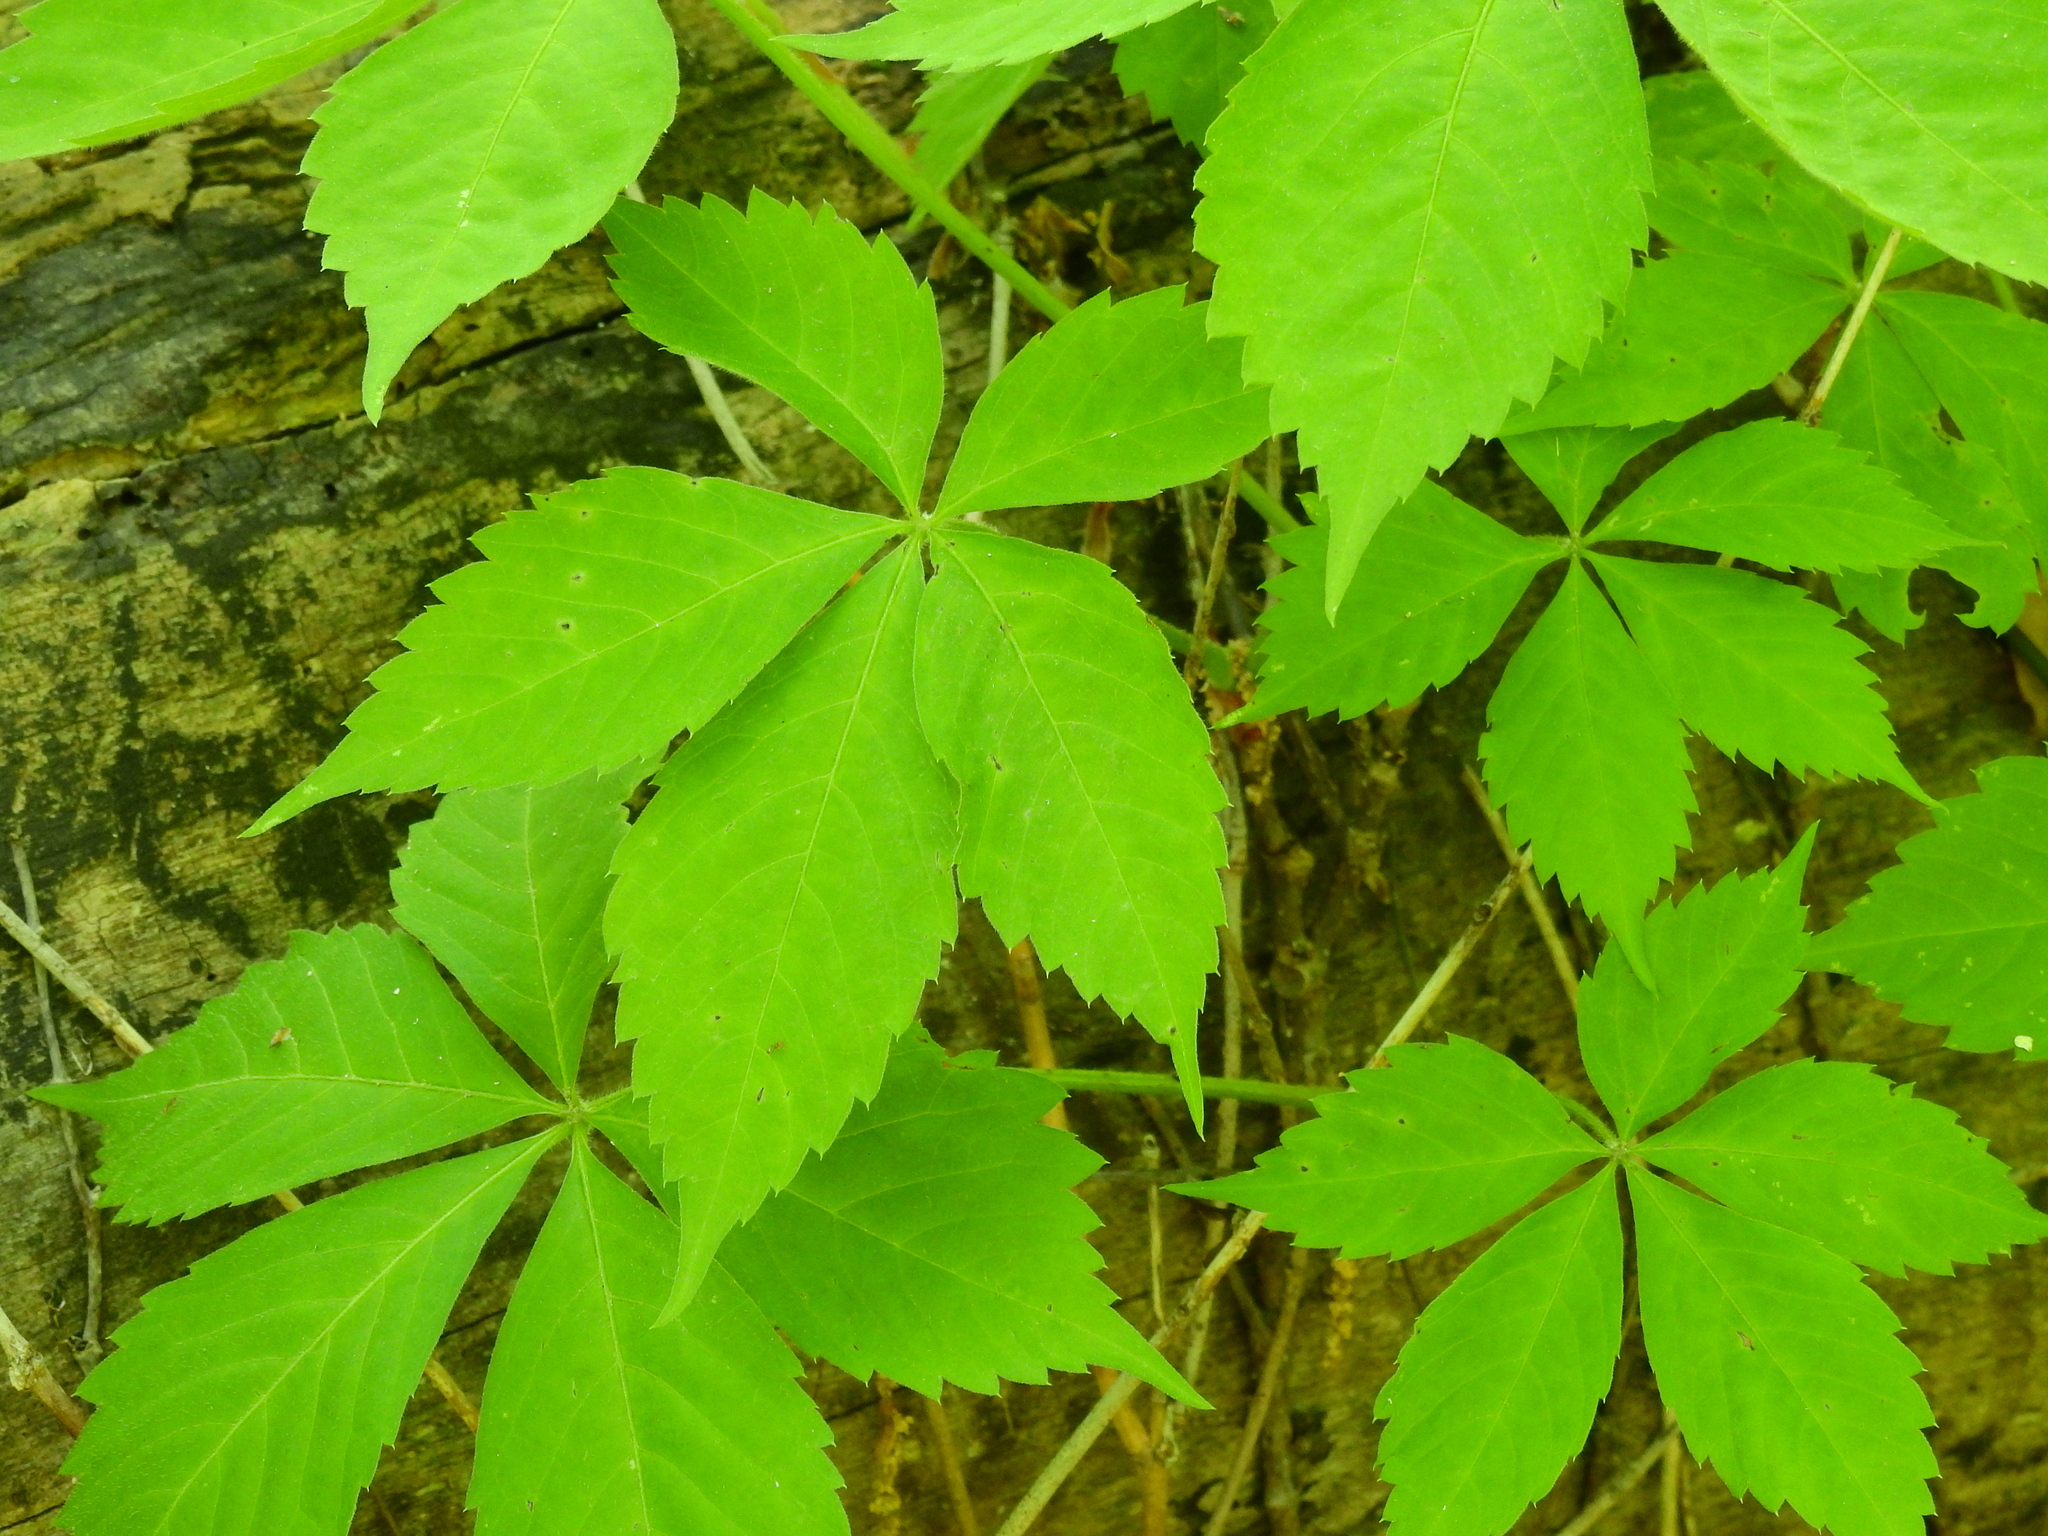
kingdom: Plantae
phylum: Tracheophyta
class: Magnoliopsida
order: Vitales
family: Vitaceae
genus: Parthenocissus
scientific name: Parthenocissus quinquefolia
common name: Virginia-creeper
